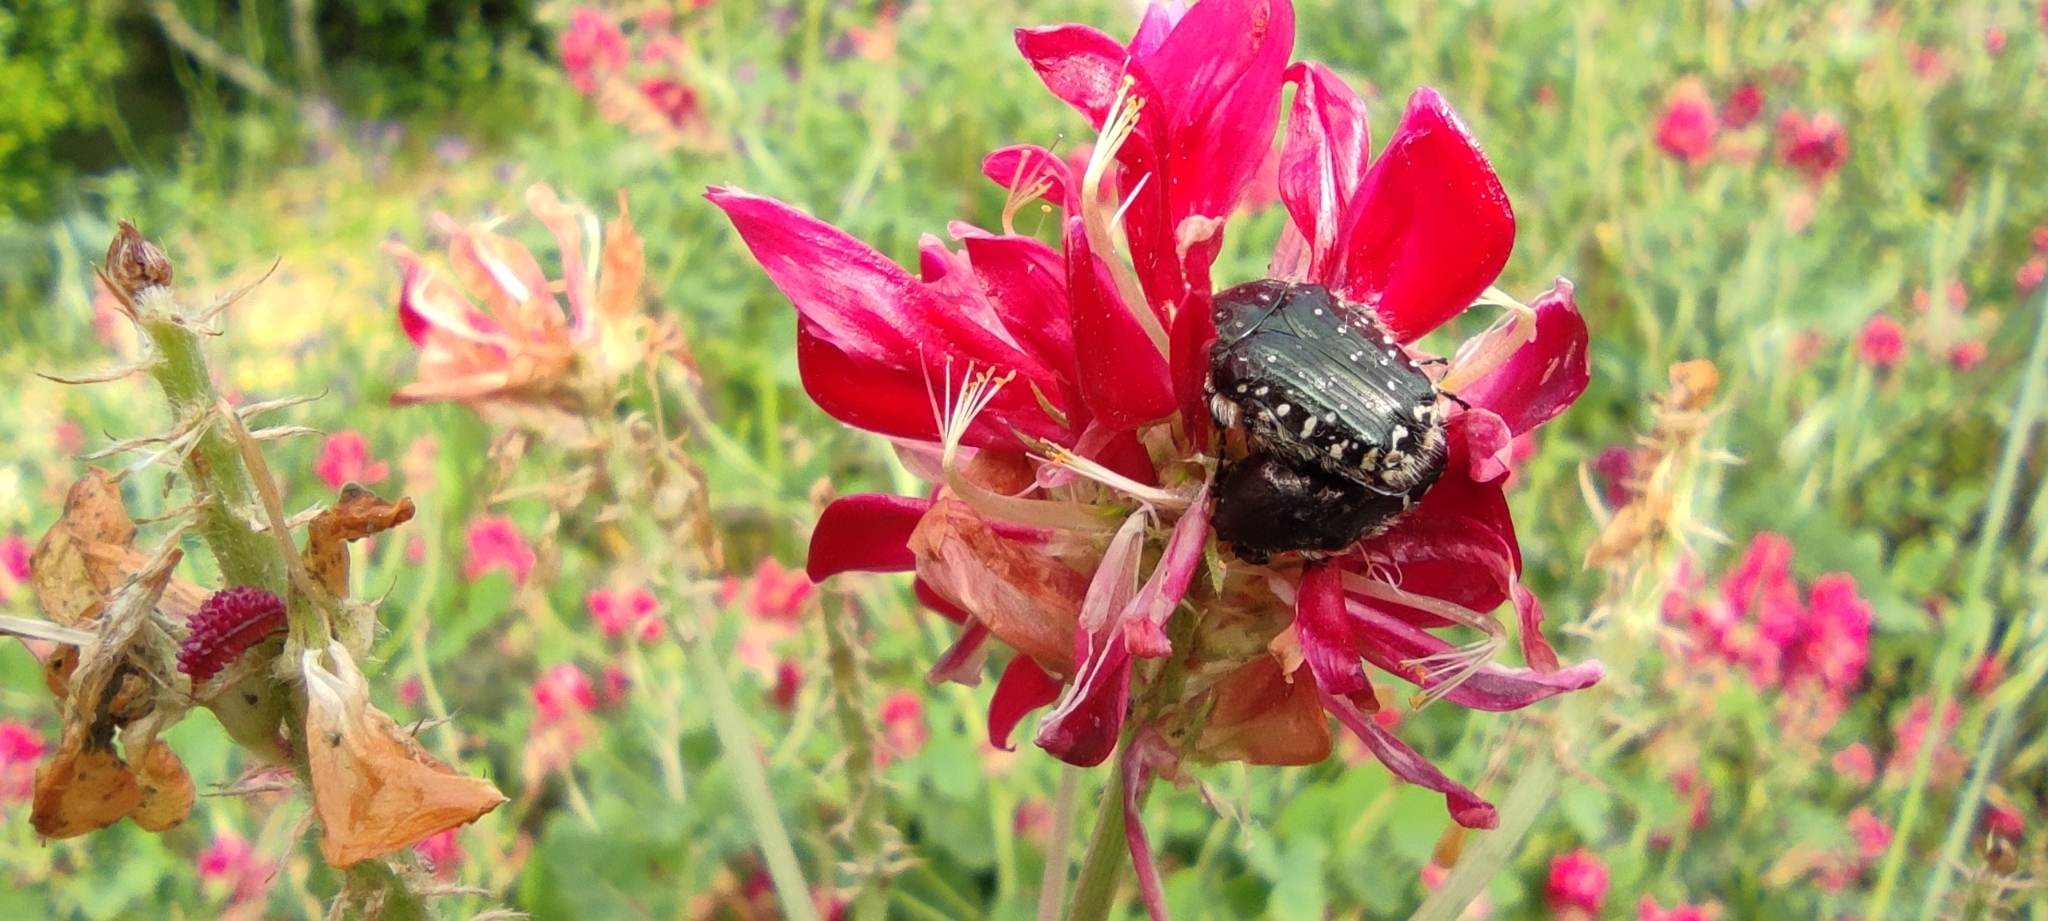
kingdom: Animalia
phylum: Arthropoda
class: Insecta
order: Coleoptera
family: Scarabaeidae
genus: Oxythyrea
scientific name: Oxythyrea funesta
